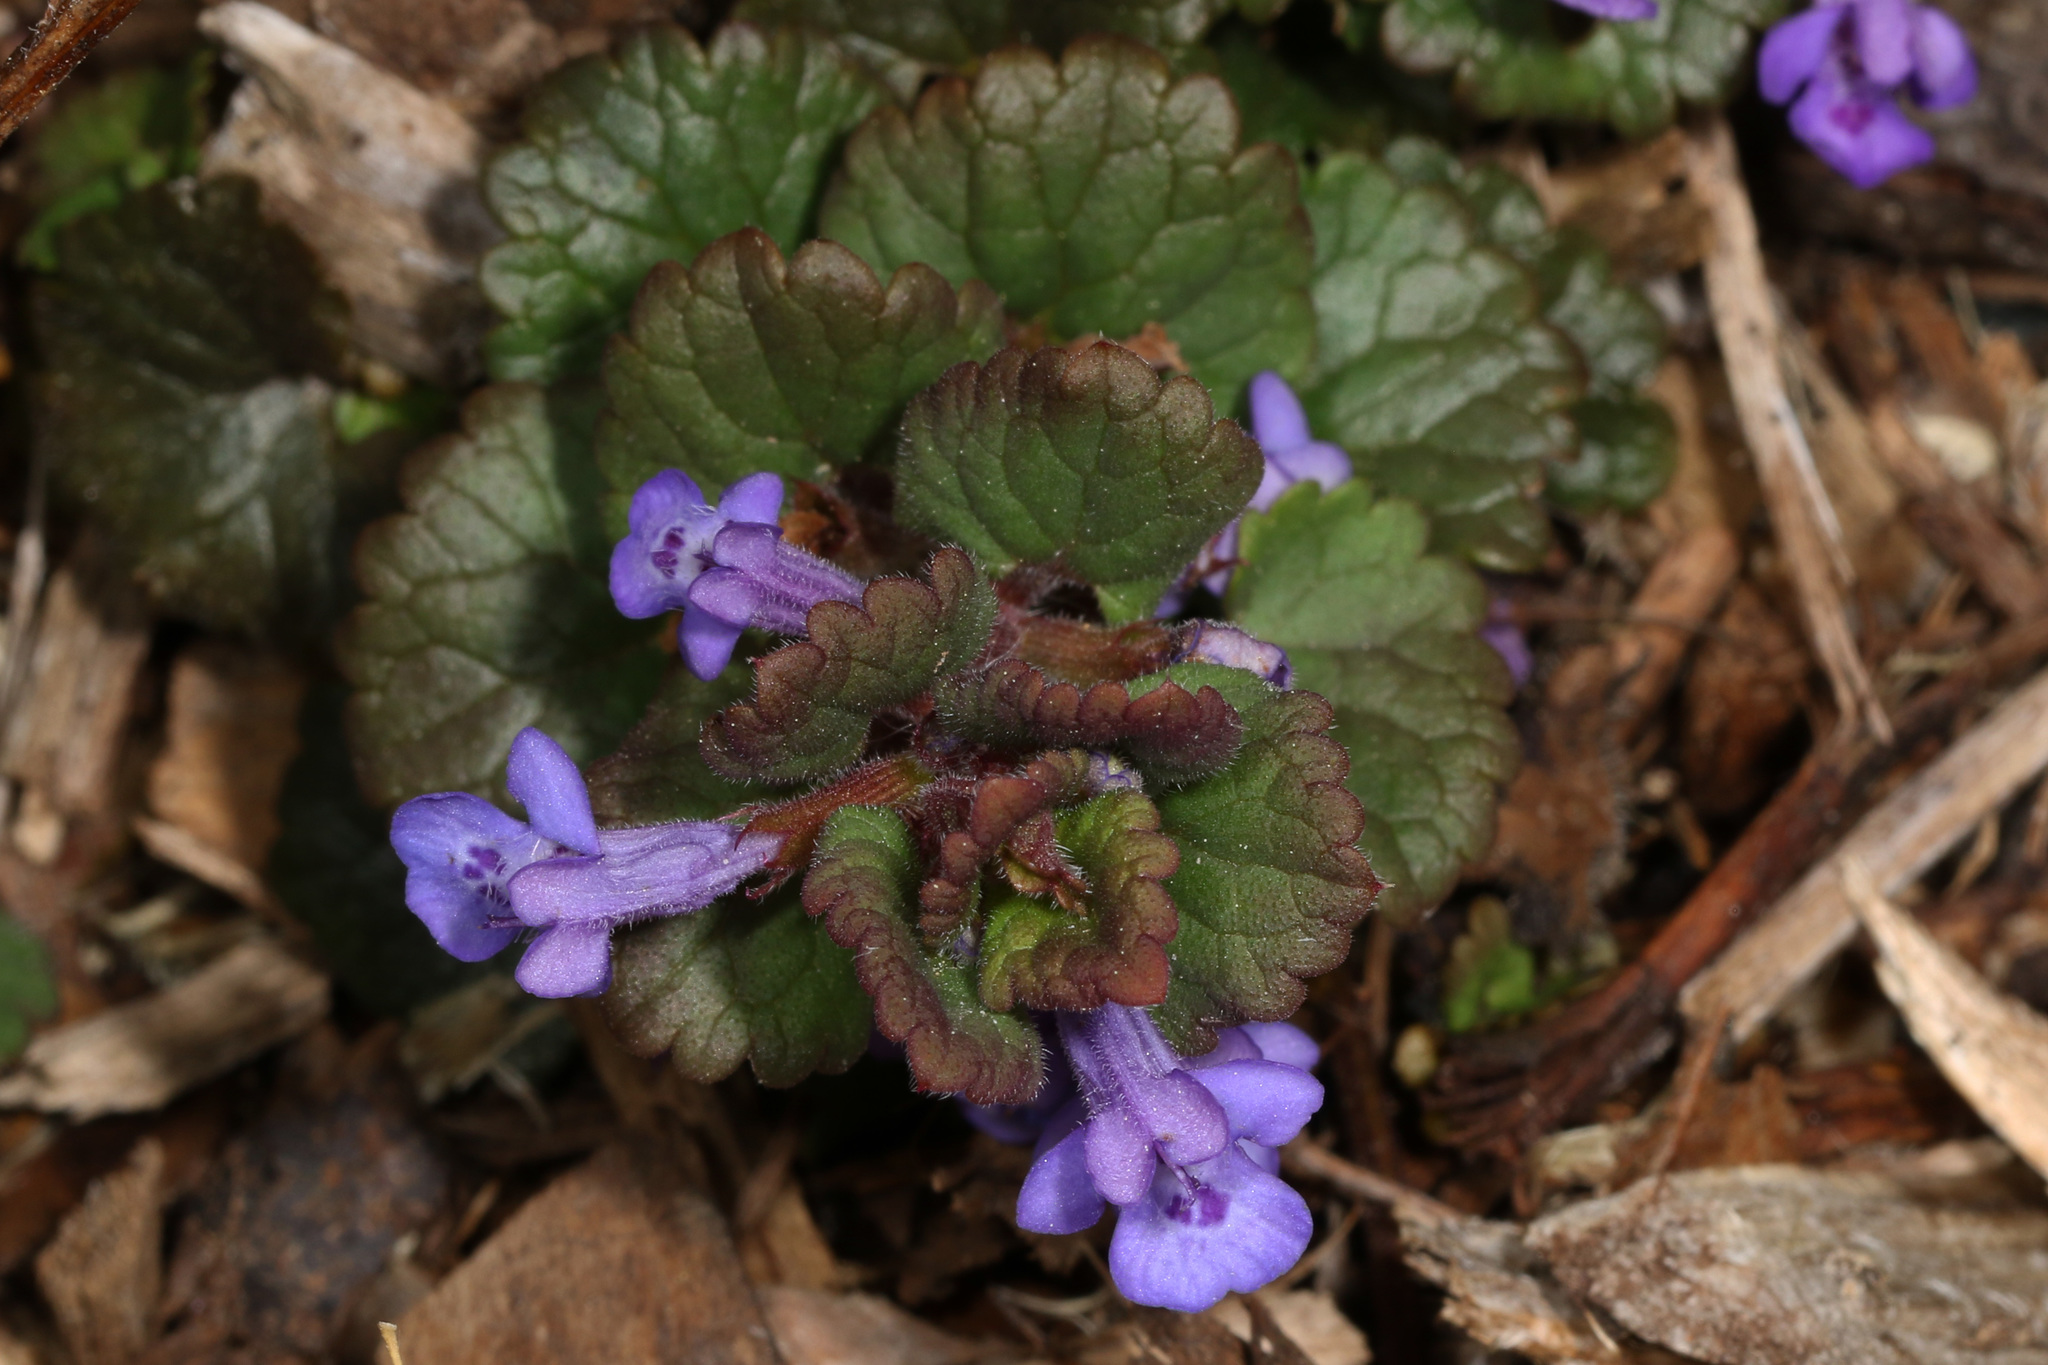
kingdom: Plantae
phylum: Tracheophyta
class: Magnoliopsida
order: Lamiales
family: Lamiaceae
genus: Glechoma
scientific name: Glechoma hederacea
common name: Ground ivy
